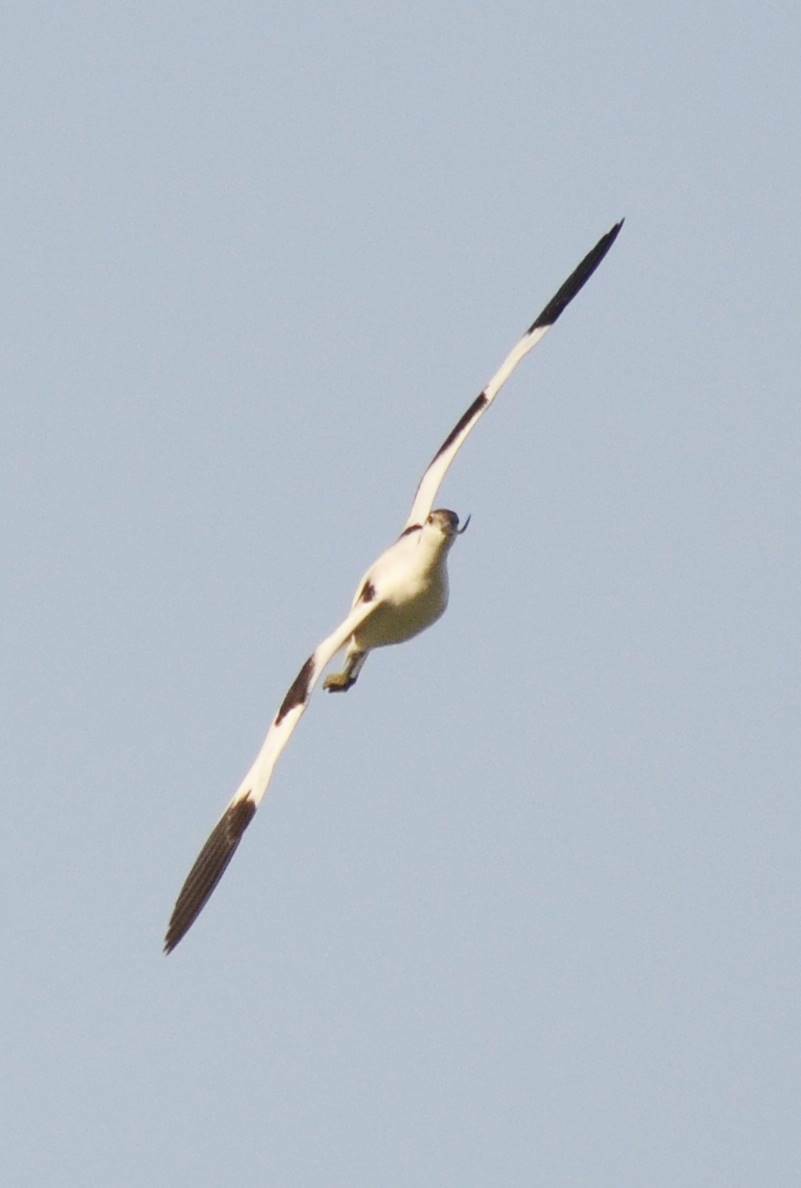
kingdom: Animalia
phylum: Chordata
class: Aves
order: Charadriiformes
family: Recurvirostridae
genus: Recurvirostra
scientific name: Recurvirostra avosetta
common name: Pied avocet
